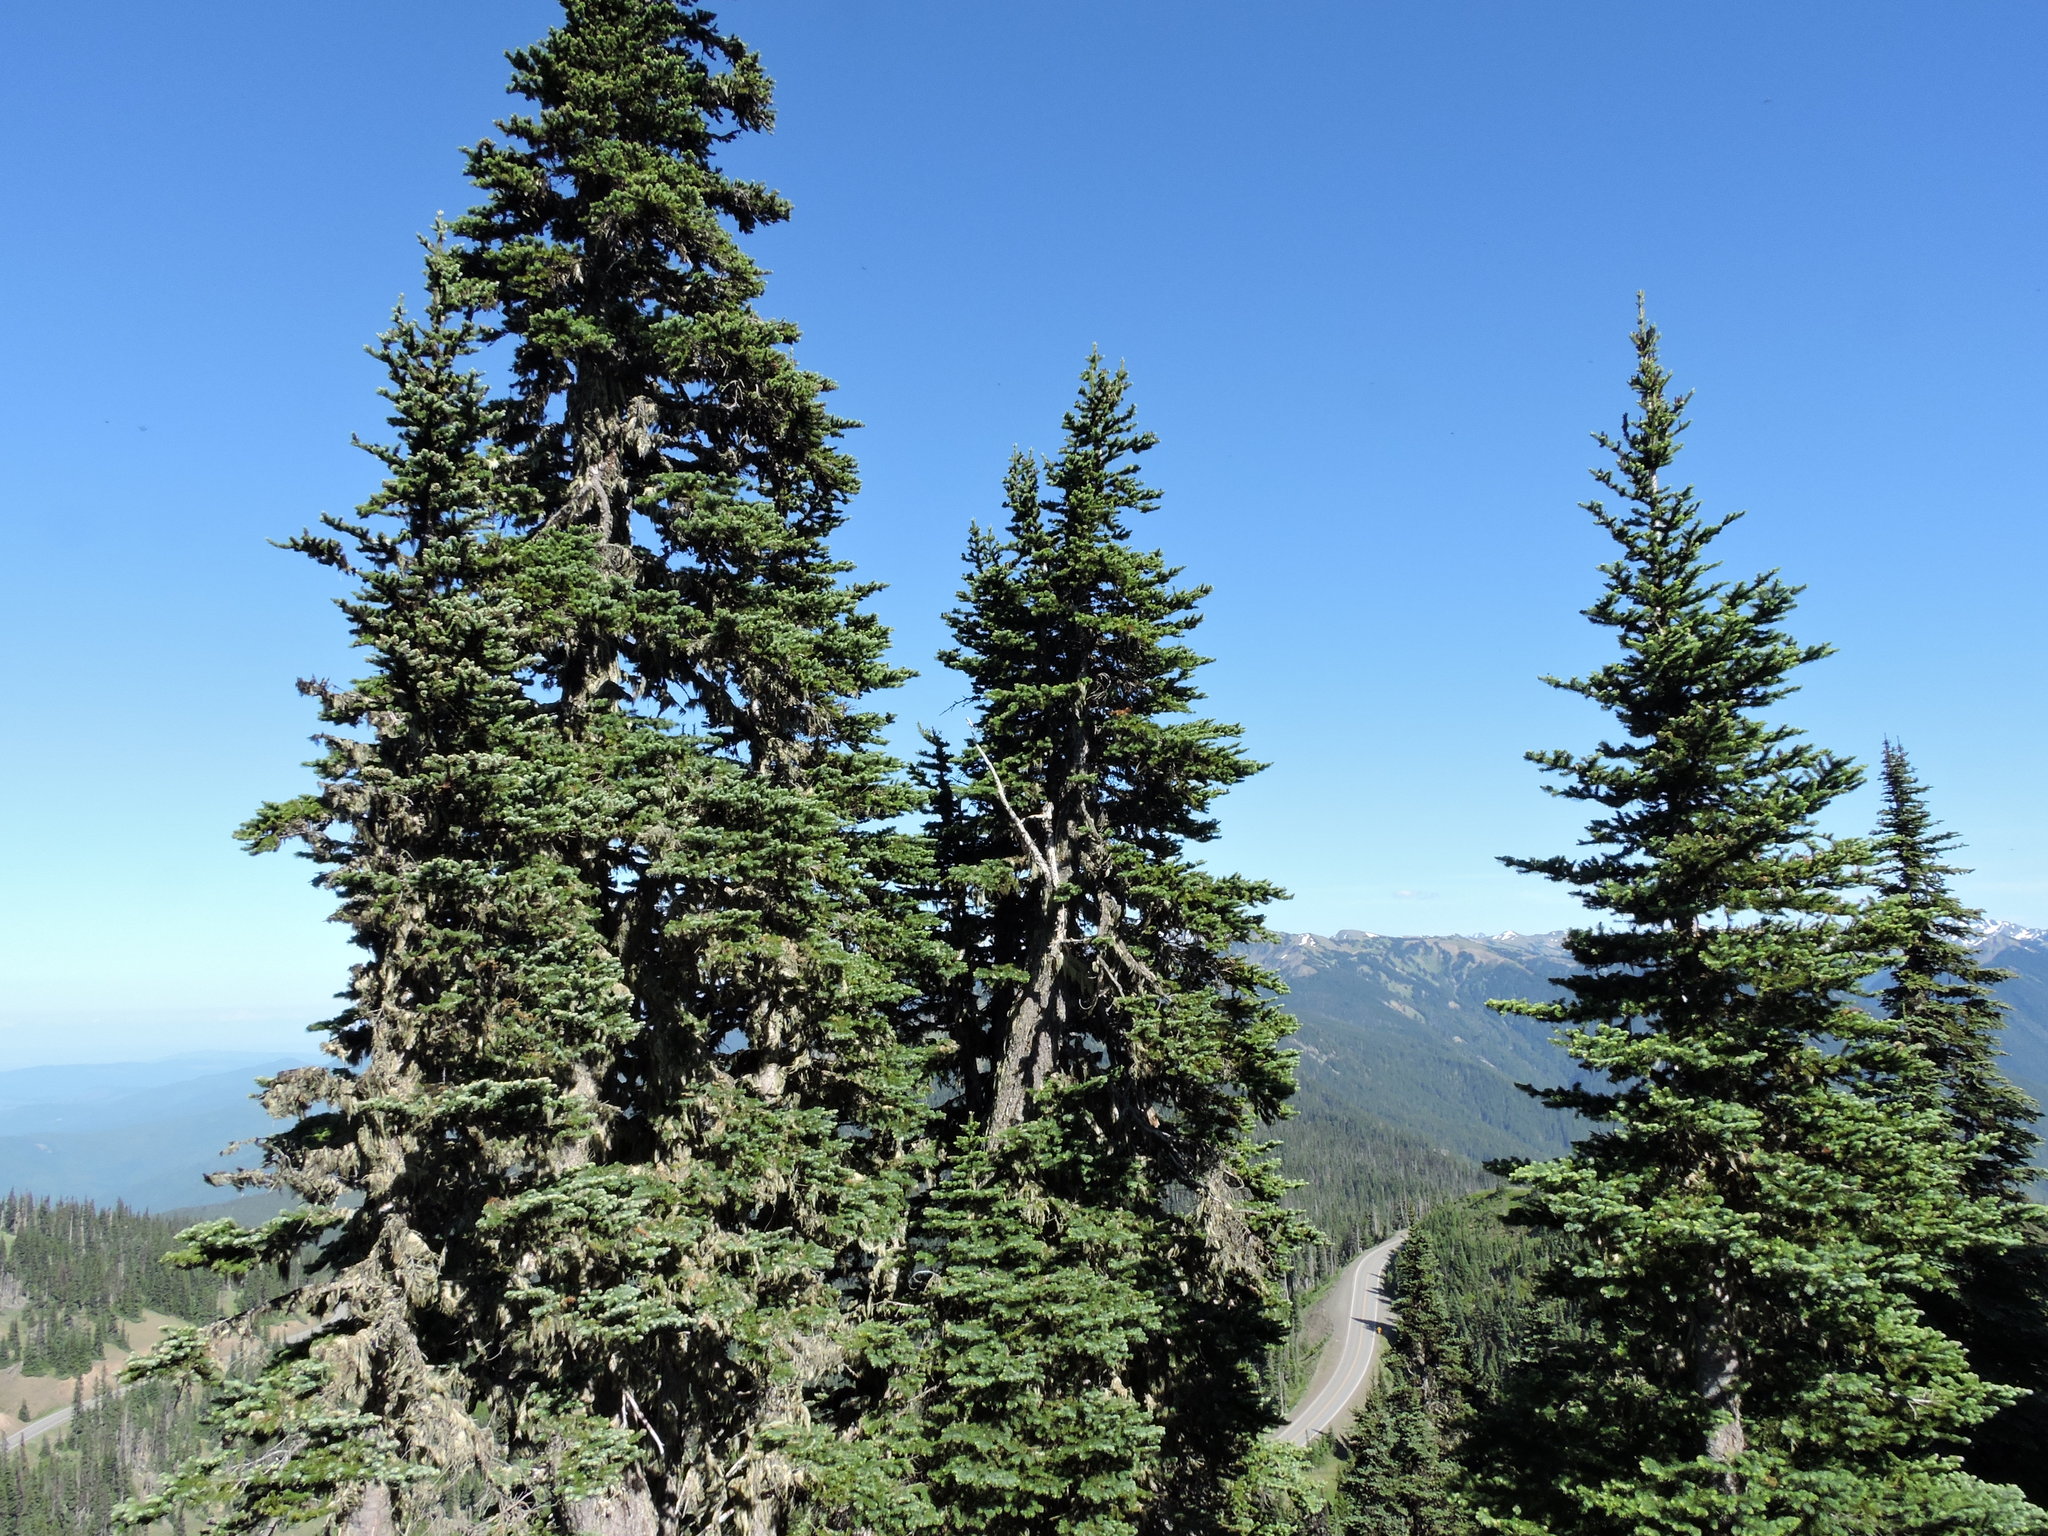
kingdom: Plantae
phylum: Tracheophyta
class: Pinopsida
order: Pinales
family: Pinaceae
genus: Abies
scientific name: Abies lasiocarpa
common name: Subalpine fir
